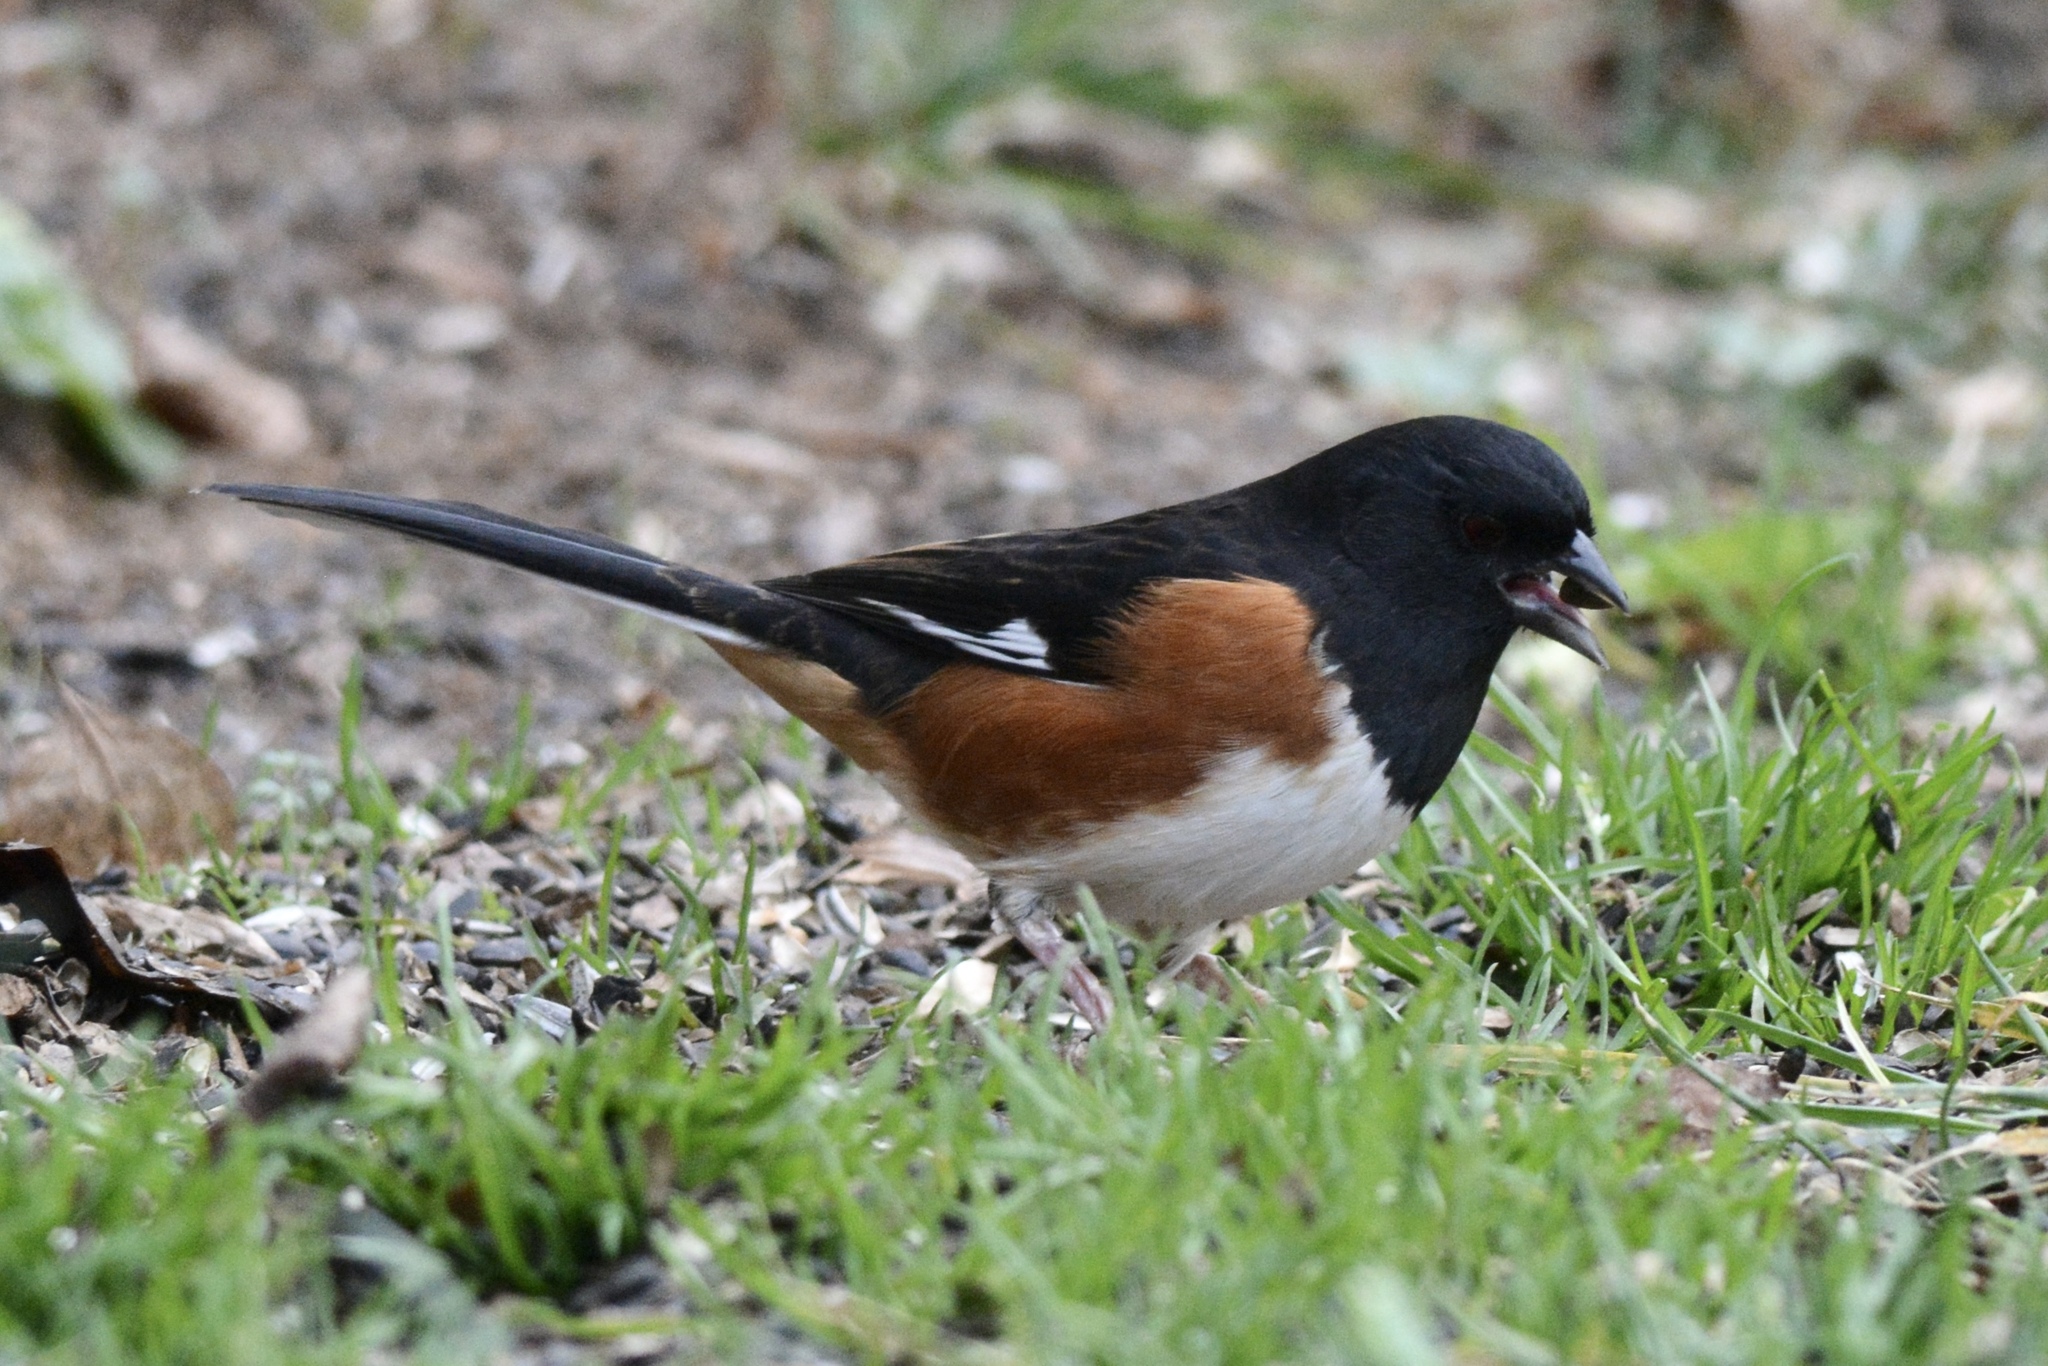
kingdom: Animalia
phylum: Chordata
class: Aves
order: Passeriformes
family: Passerellidae
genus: Pipilo
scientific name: Pipilo erythrophthalmus
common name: Eastern towhee
